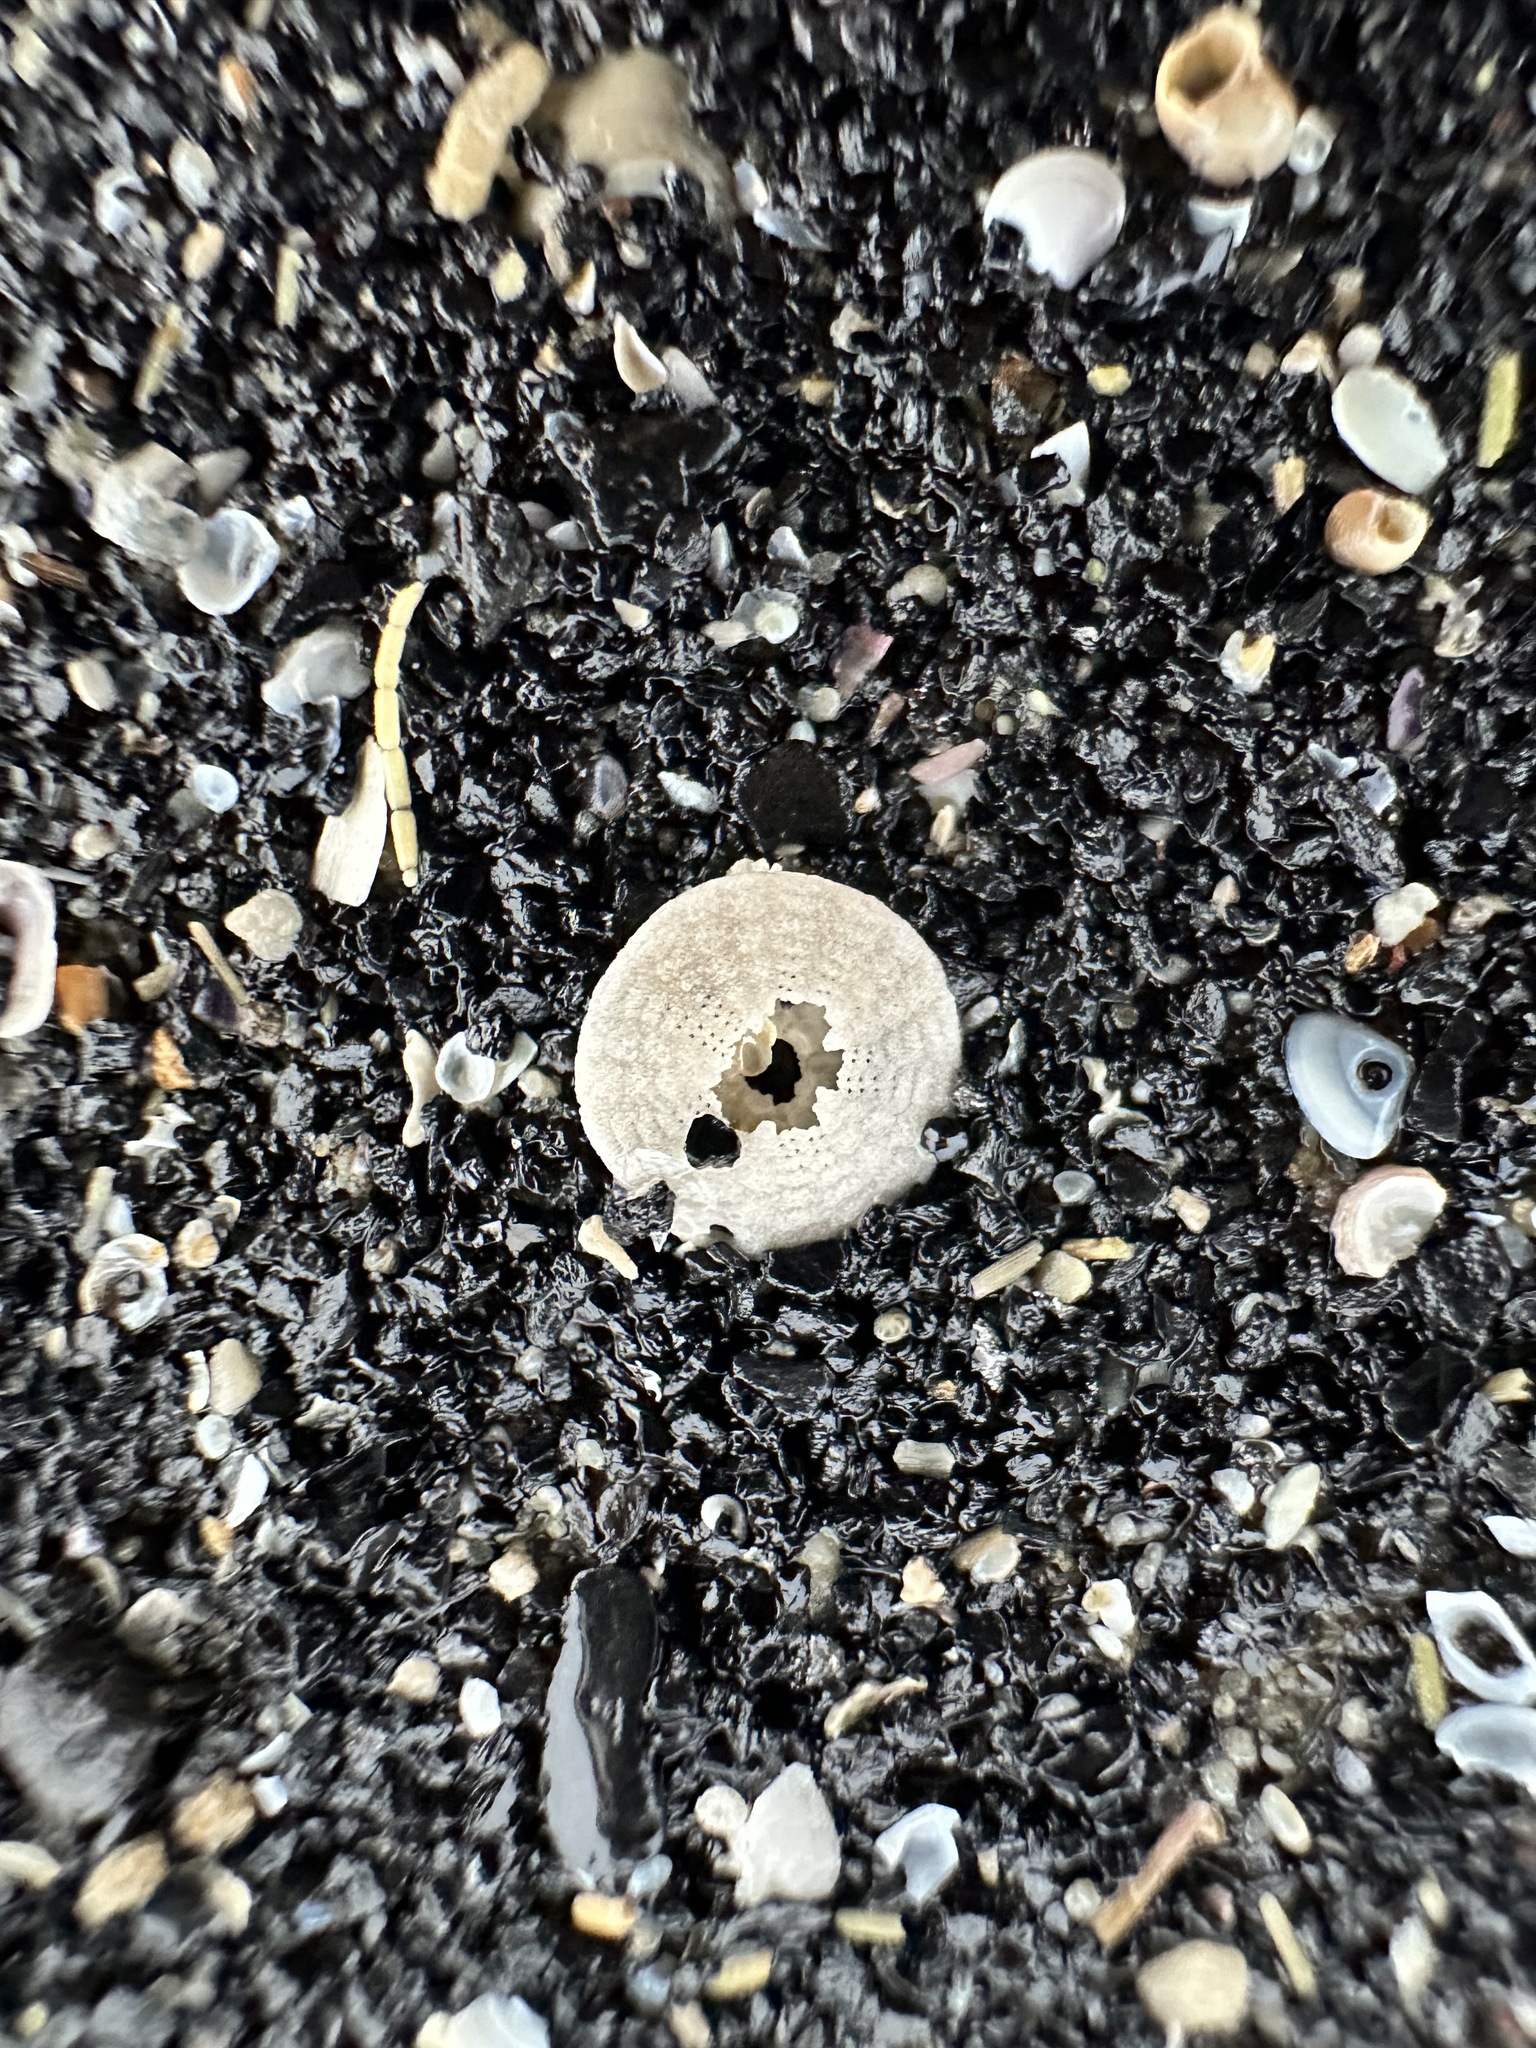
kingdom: Animalia
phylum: Echinodermata
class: Echinoidea
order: Echinolampadacea
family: Echinarachniidae
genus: Echinarachnius
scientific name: Echinarachnius parma
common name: Common sand dollar
